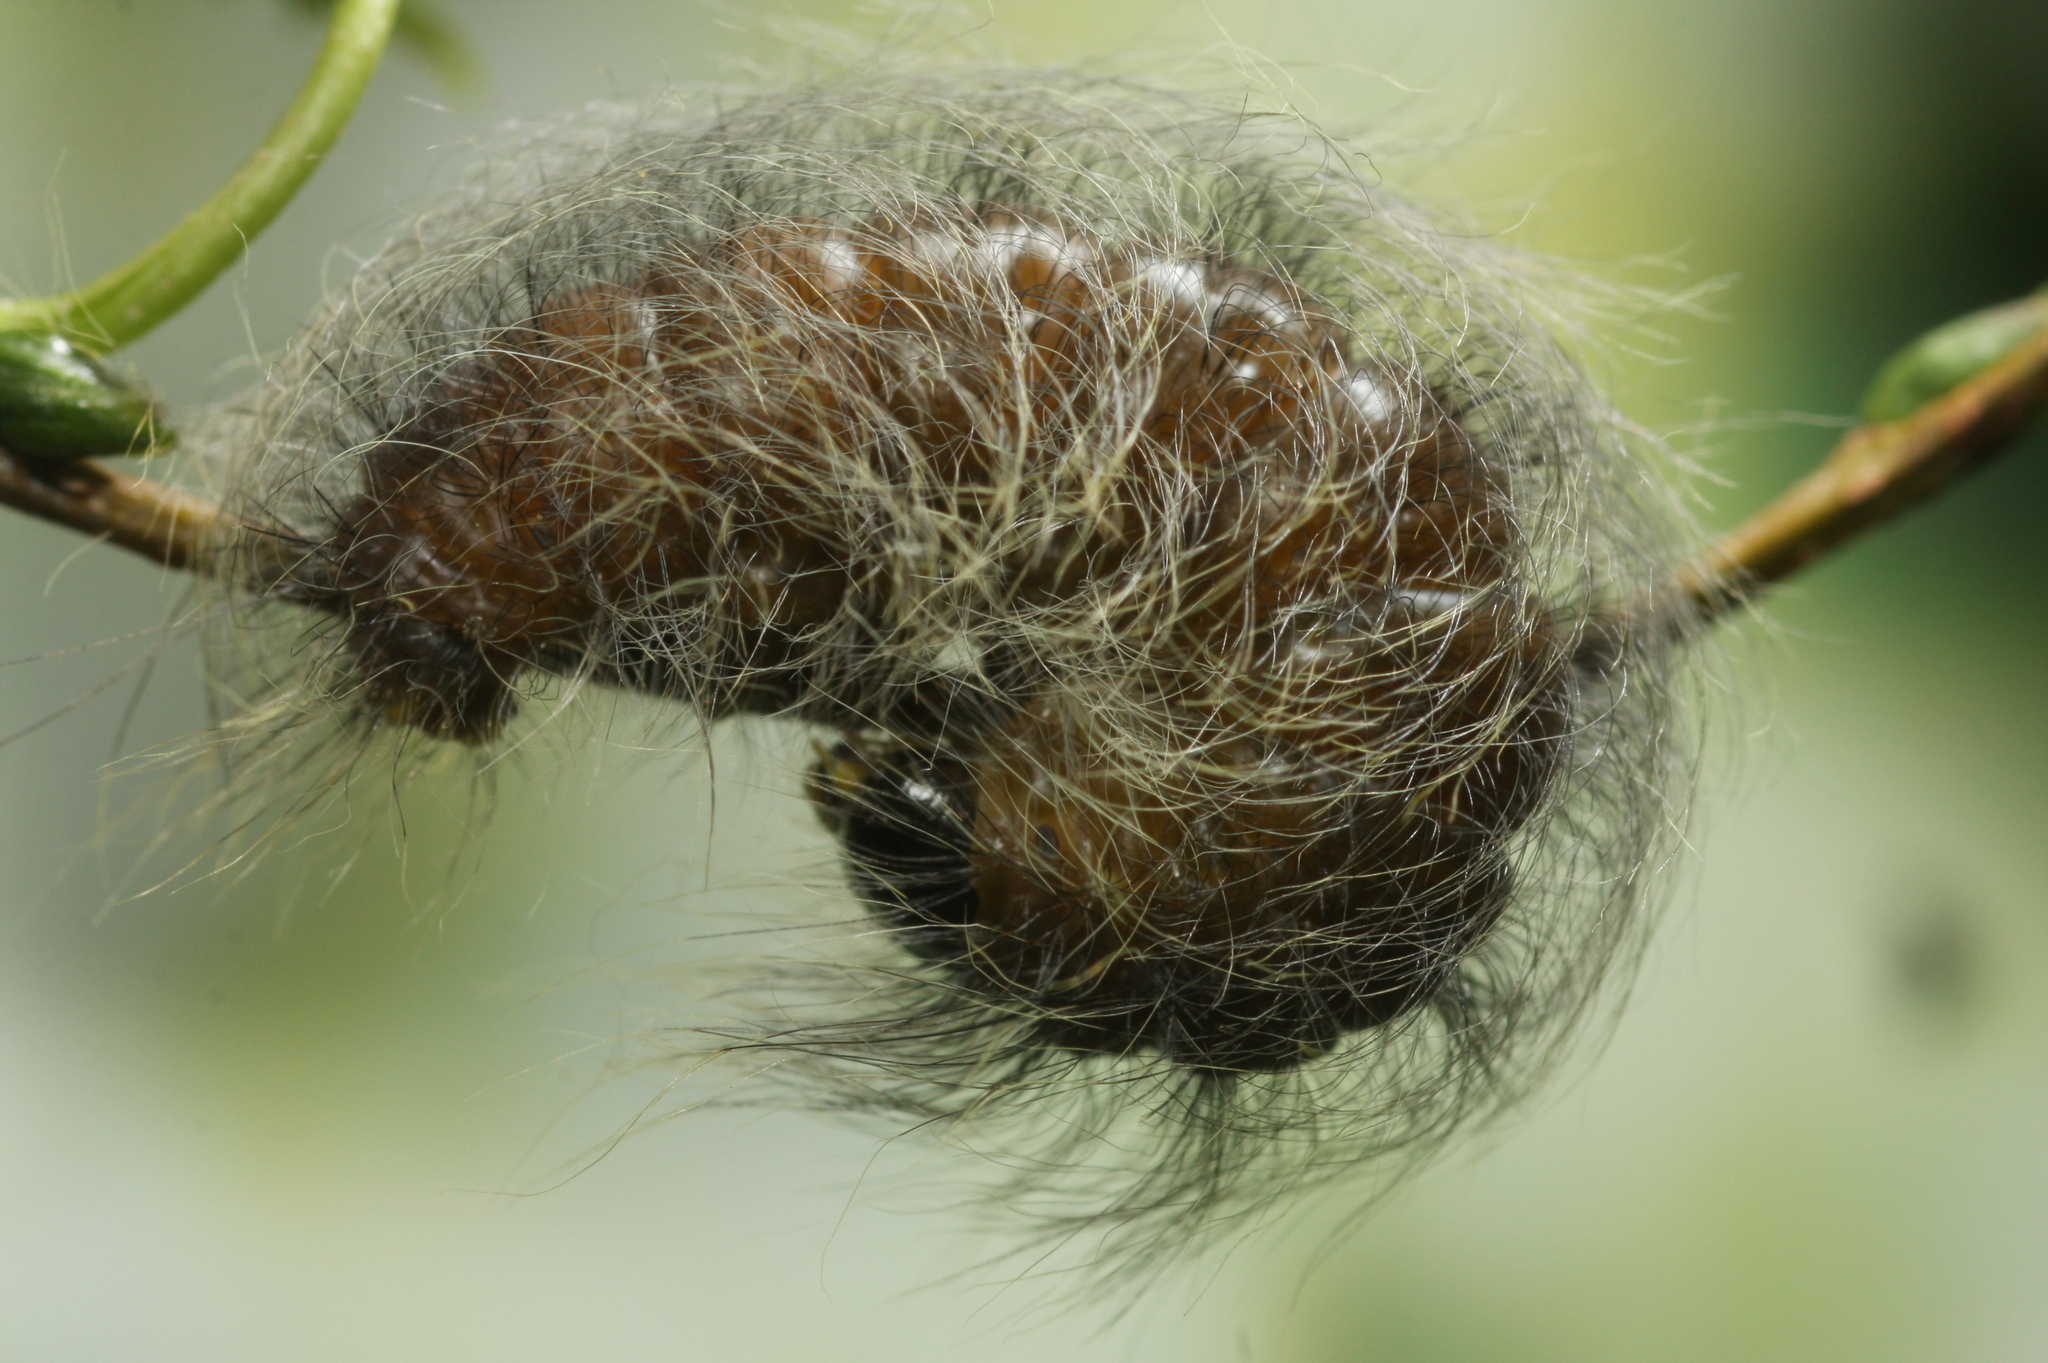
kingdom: Animalia
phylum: Arthropoda
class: Insecta
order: Lepidoptera
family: Noctuidae
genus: Acronicta
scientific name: Acronicta leporina
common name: Miller
